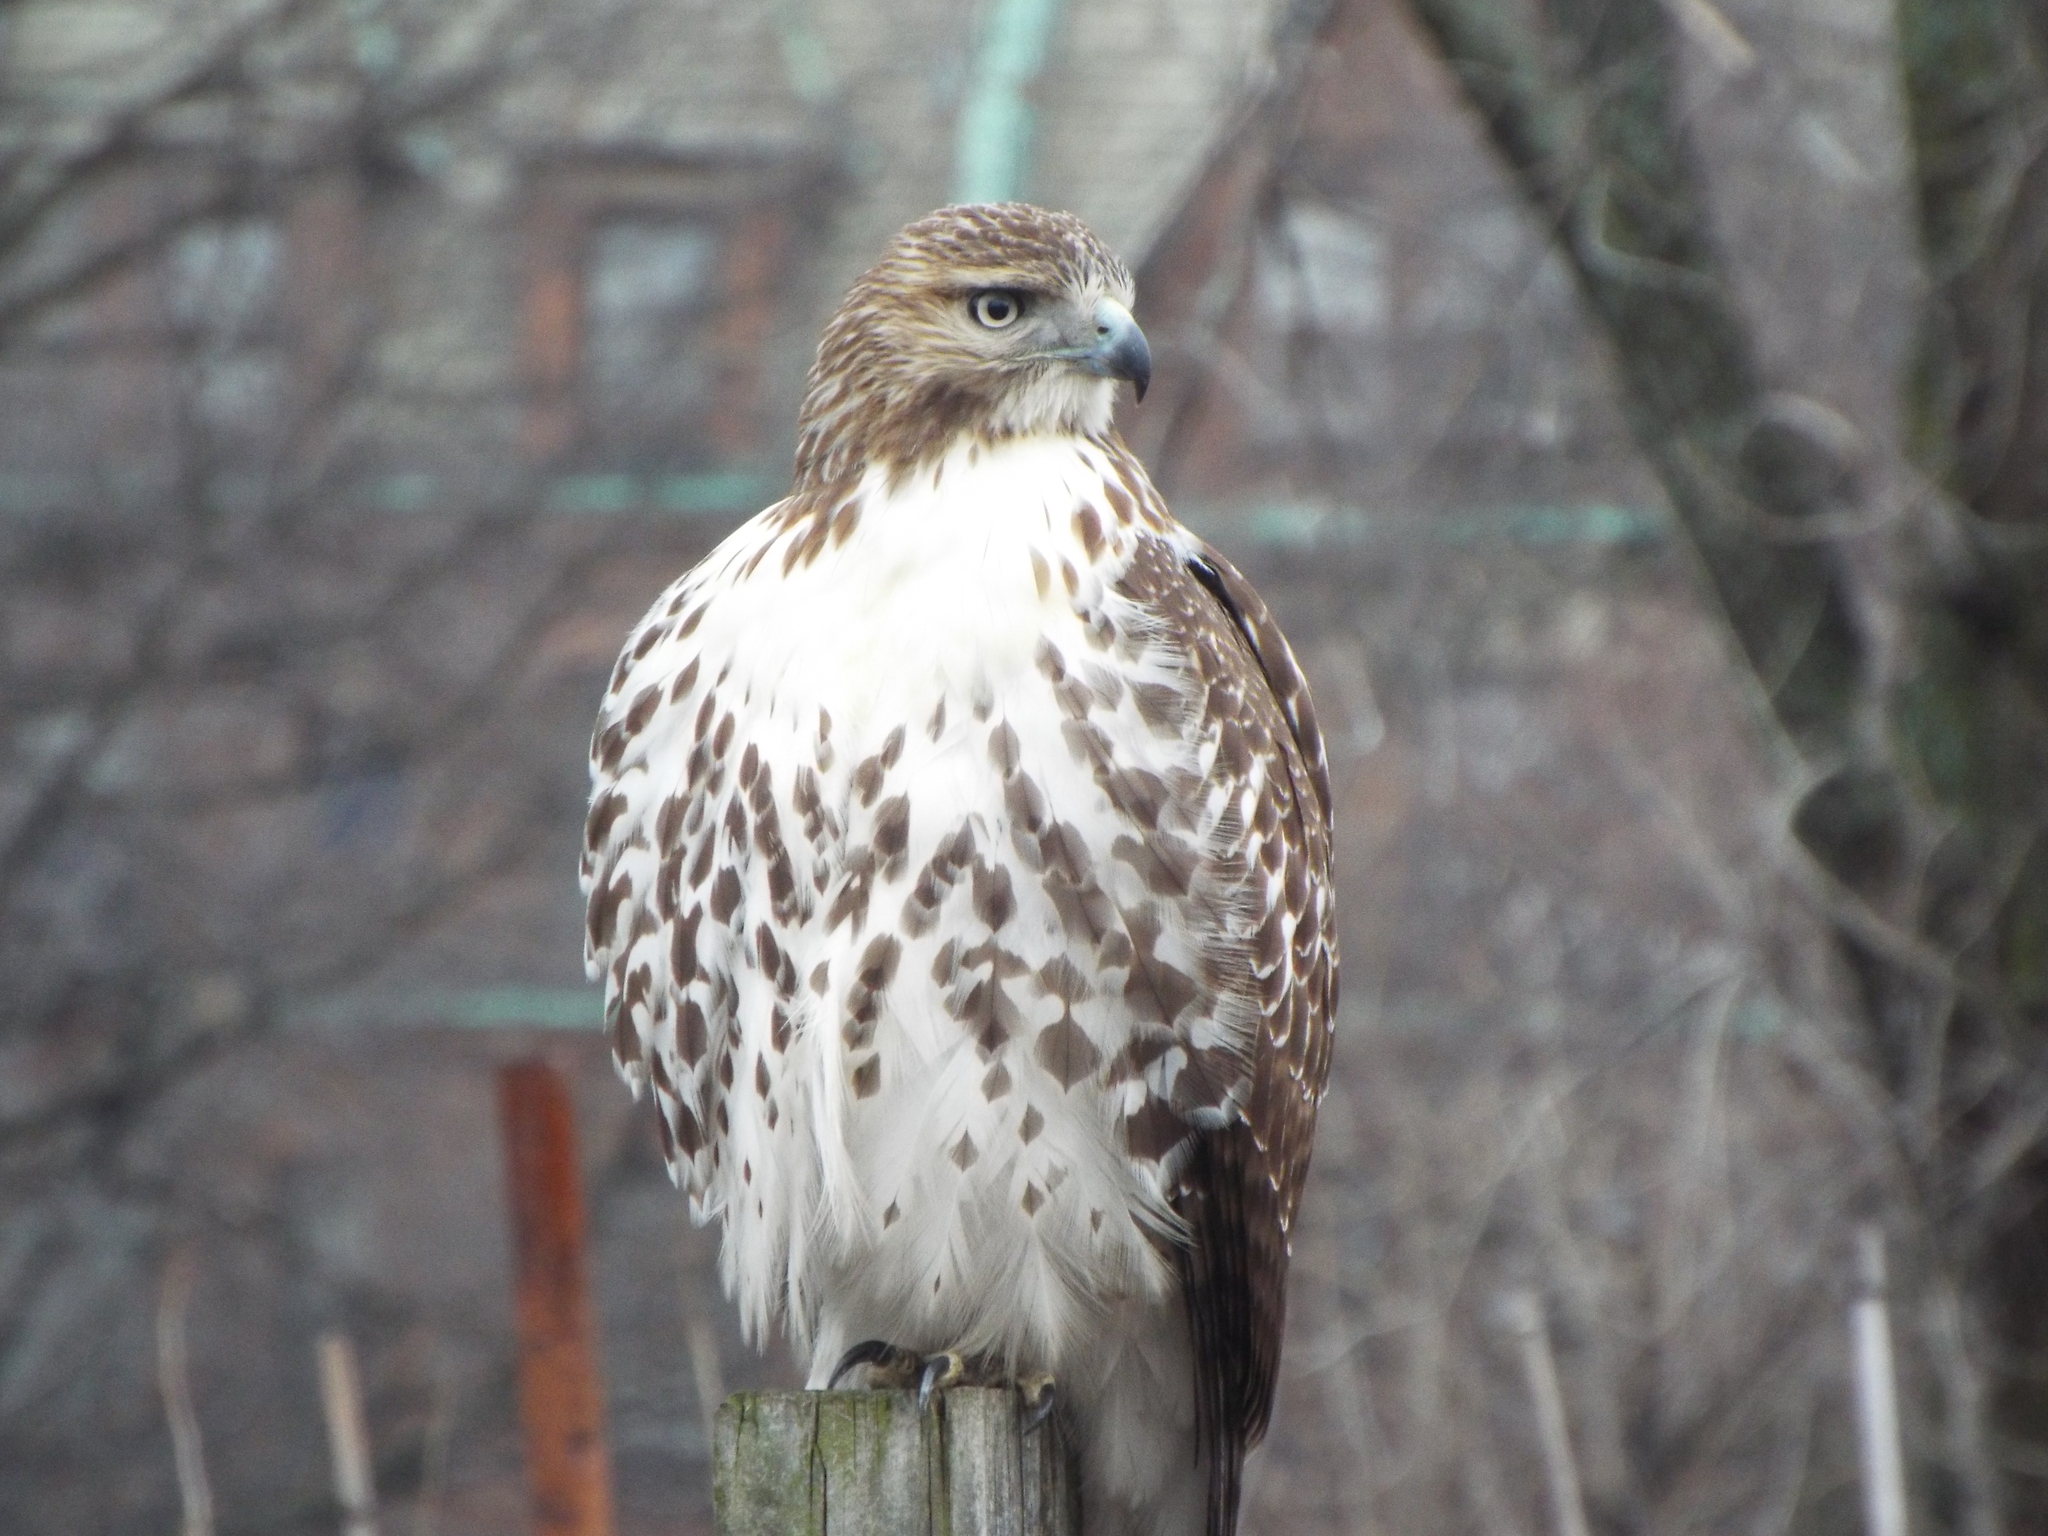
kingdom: Animalia
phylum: Chordata
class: Aves
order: Accipitriformes
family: Accipitridae
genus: Buteo
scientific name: Buteo jamaicensis
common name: Red-tailed hawk
